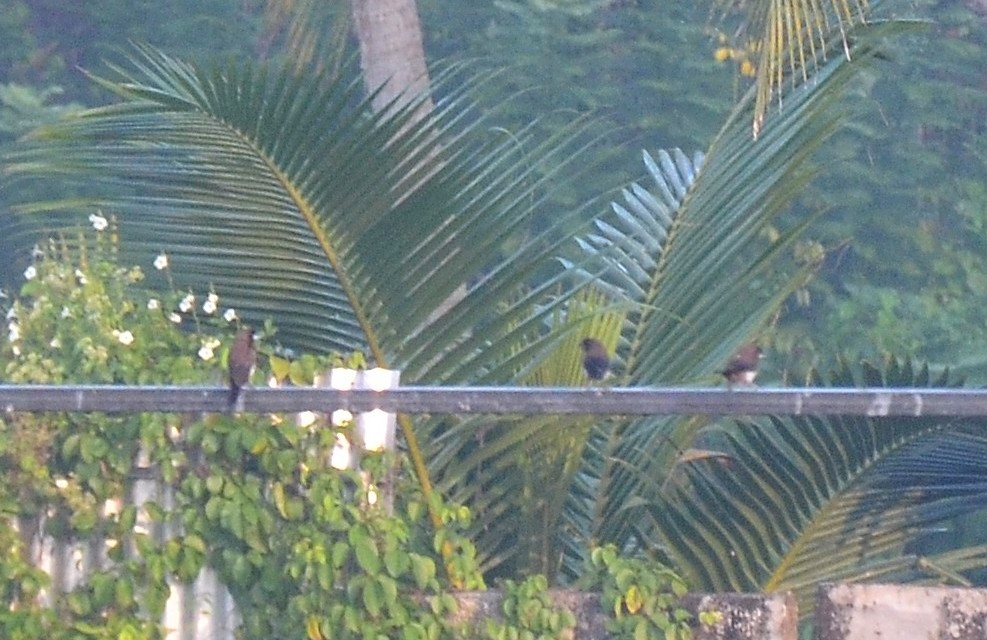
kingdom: Animalia
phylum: Chordata
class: Aves
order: Passeriformes
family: Estrildidae
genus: Lonchura
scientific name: Lonchura striata
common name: White-rumped munia
